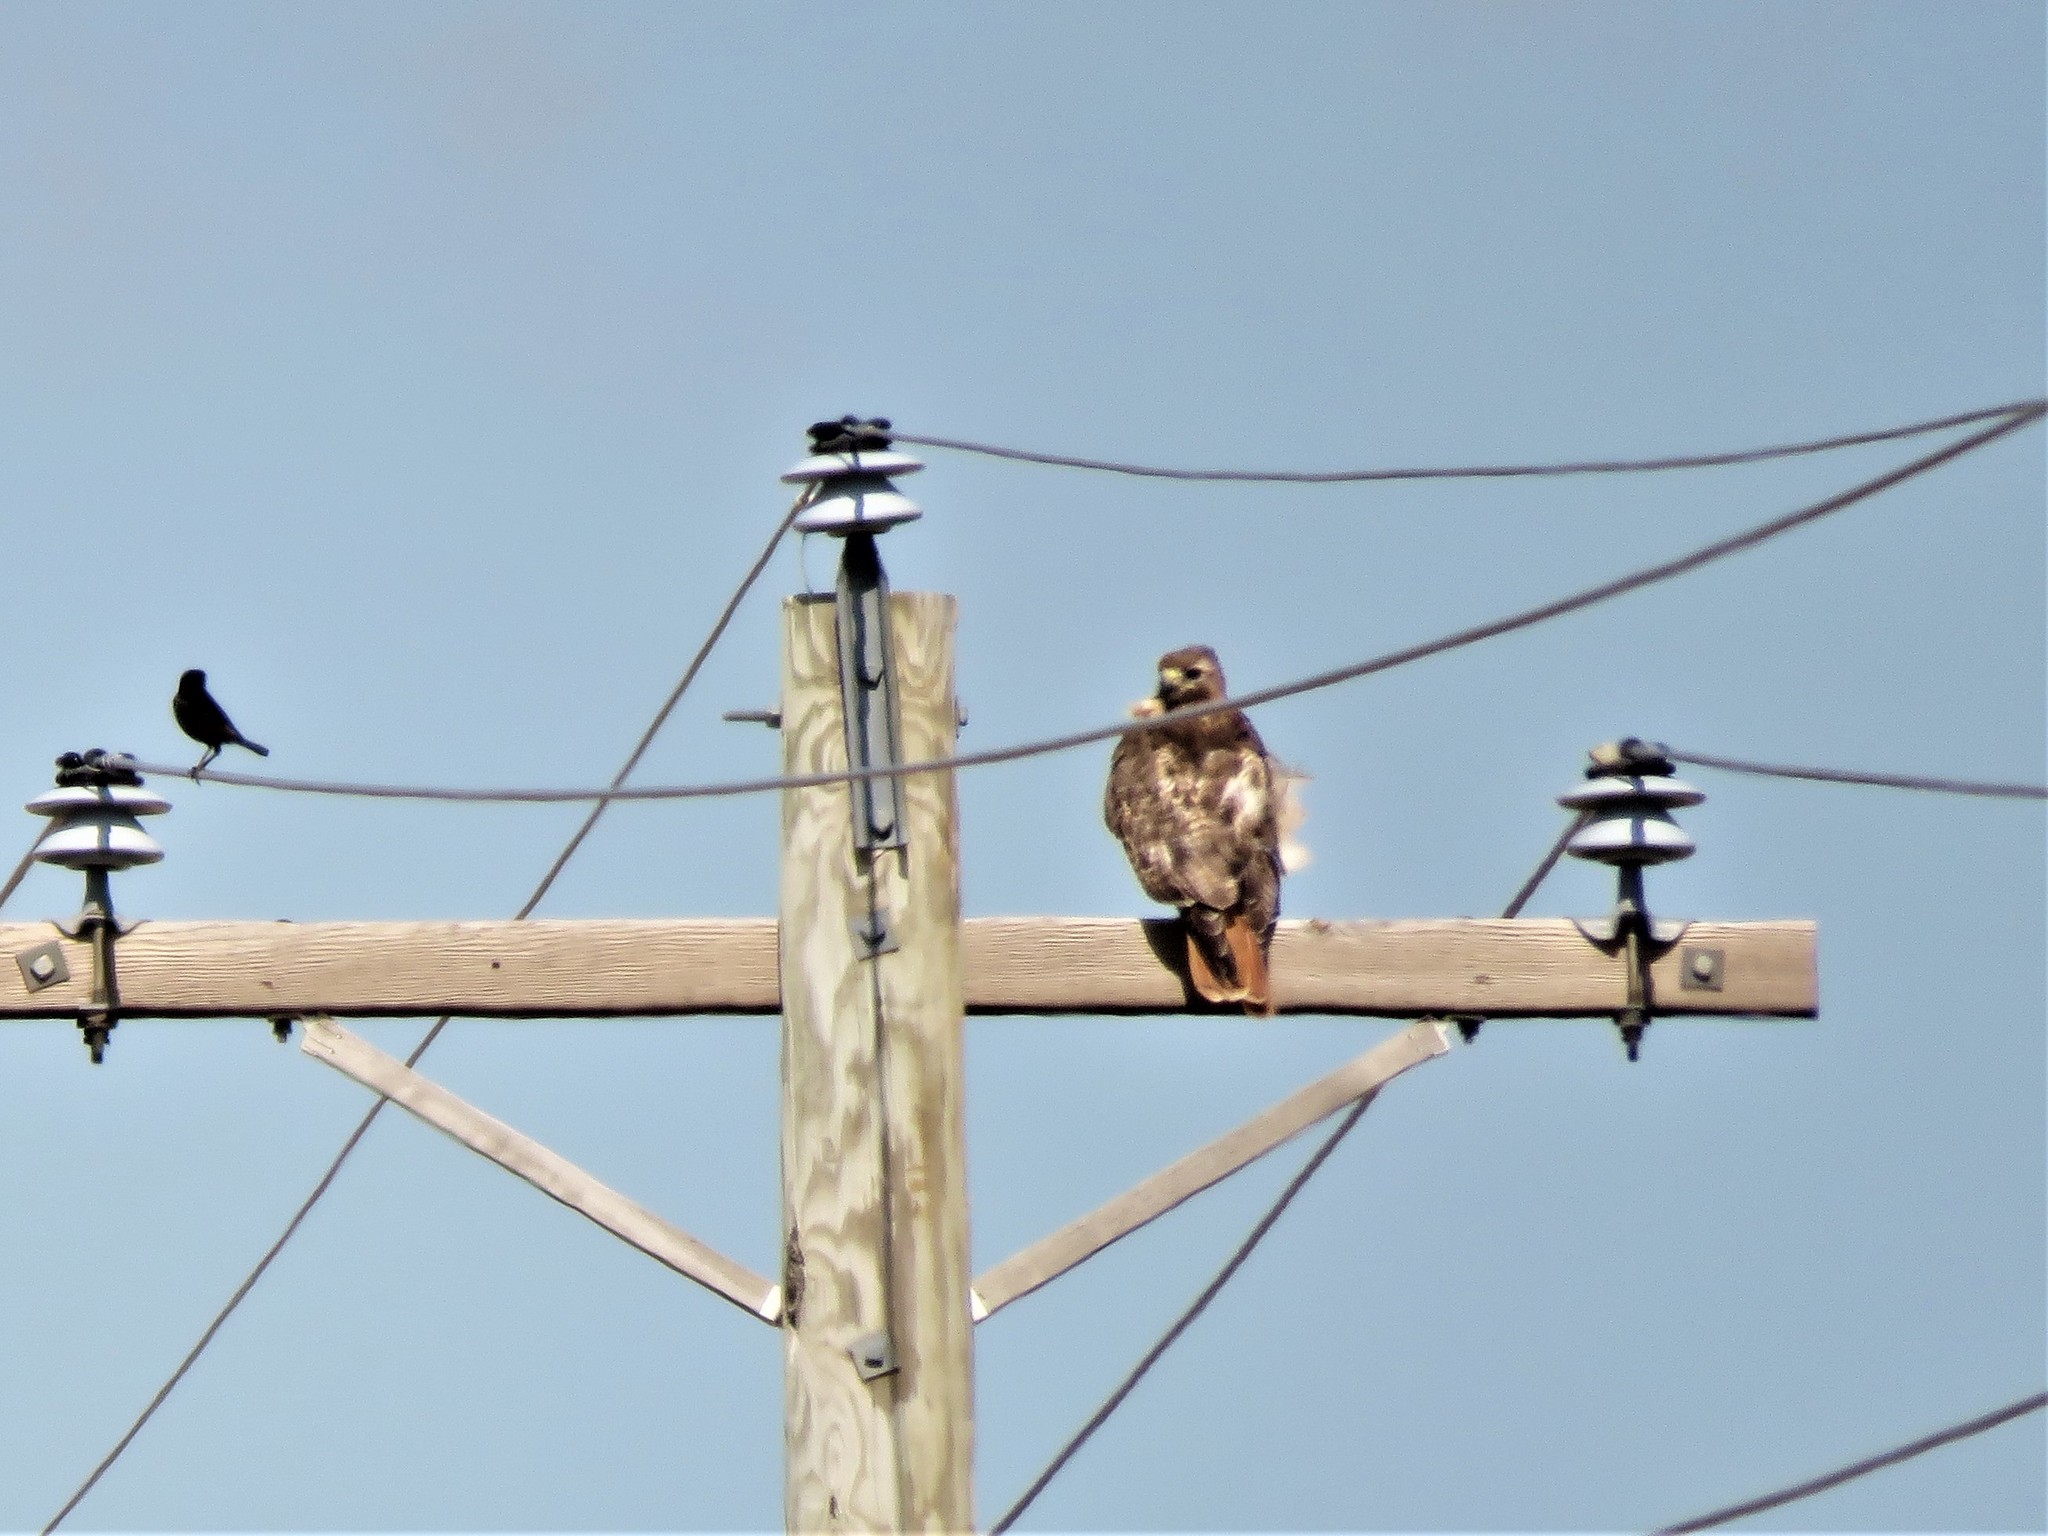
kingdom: Animalia
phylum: Chordata
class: Aves
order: Accipitriformes
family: Accipitridae
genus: Buteo
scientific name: Buteo jamaicensis
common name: Red-tailed hawk
